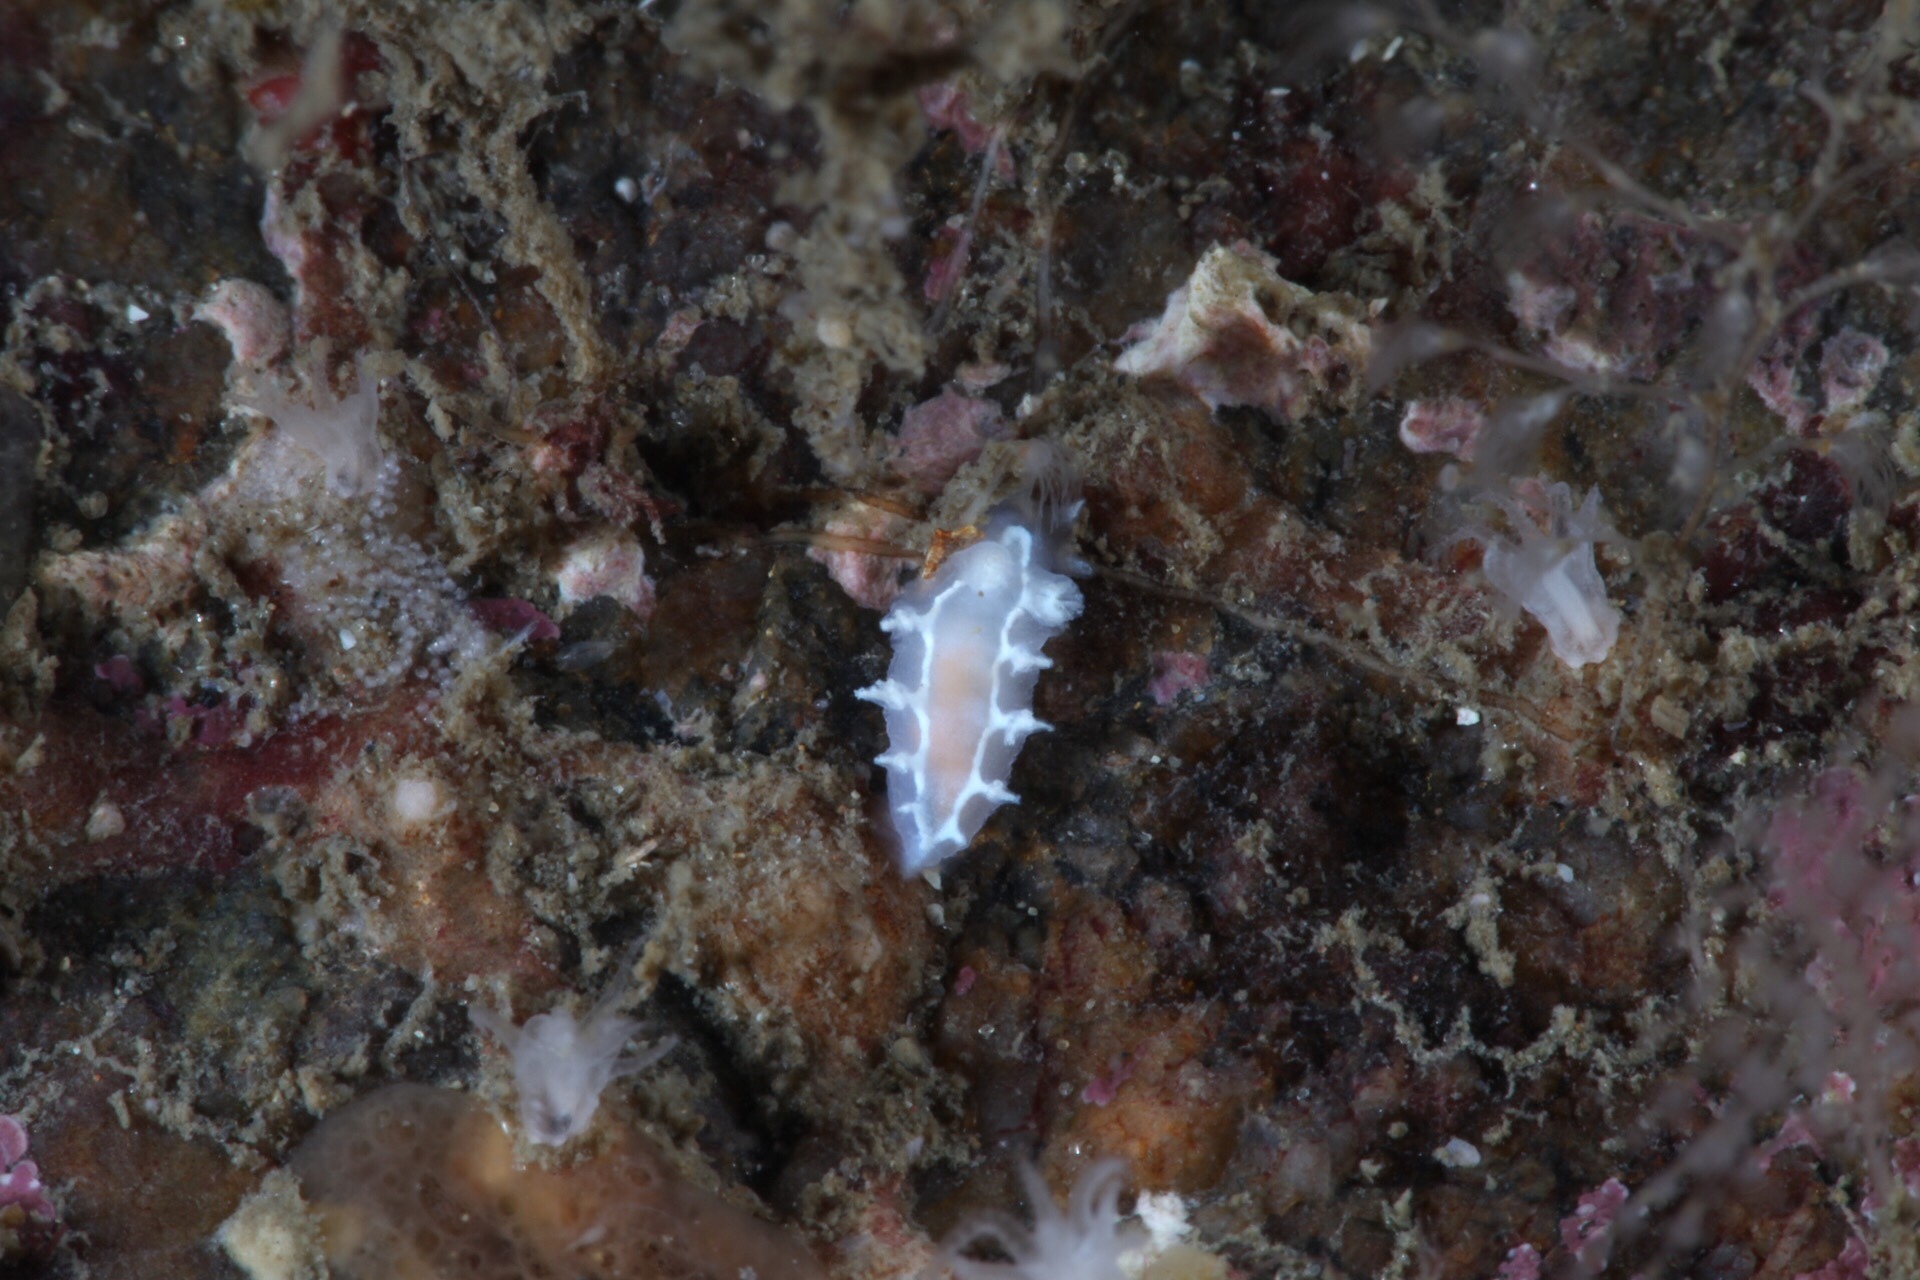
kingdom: Animalia
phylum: Mollusca
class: Gastropoda
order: Nudibranchia
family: Tritoniidae
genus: Duvaucelia
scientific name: Duvaucelia lineata
